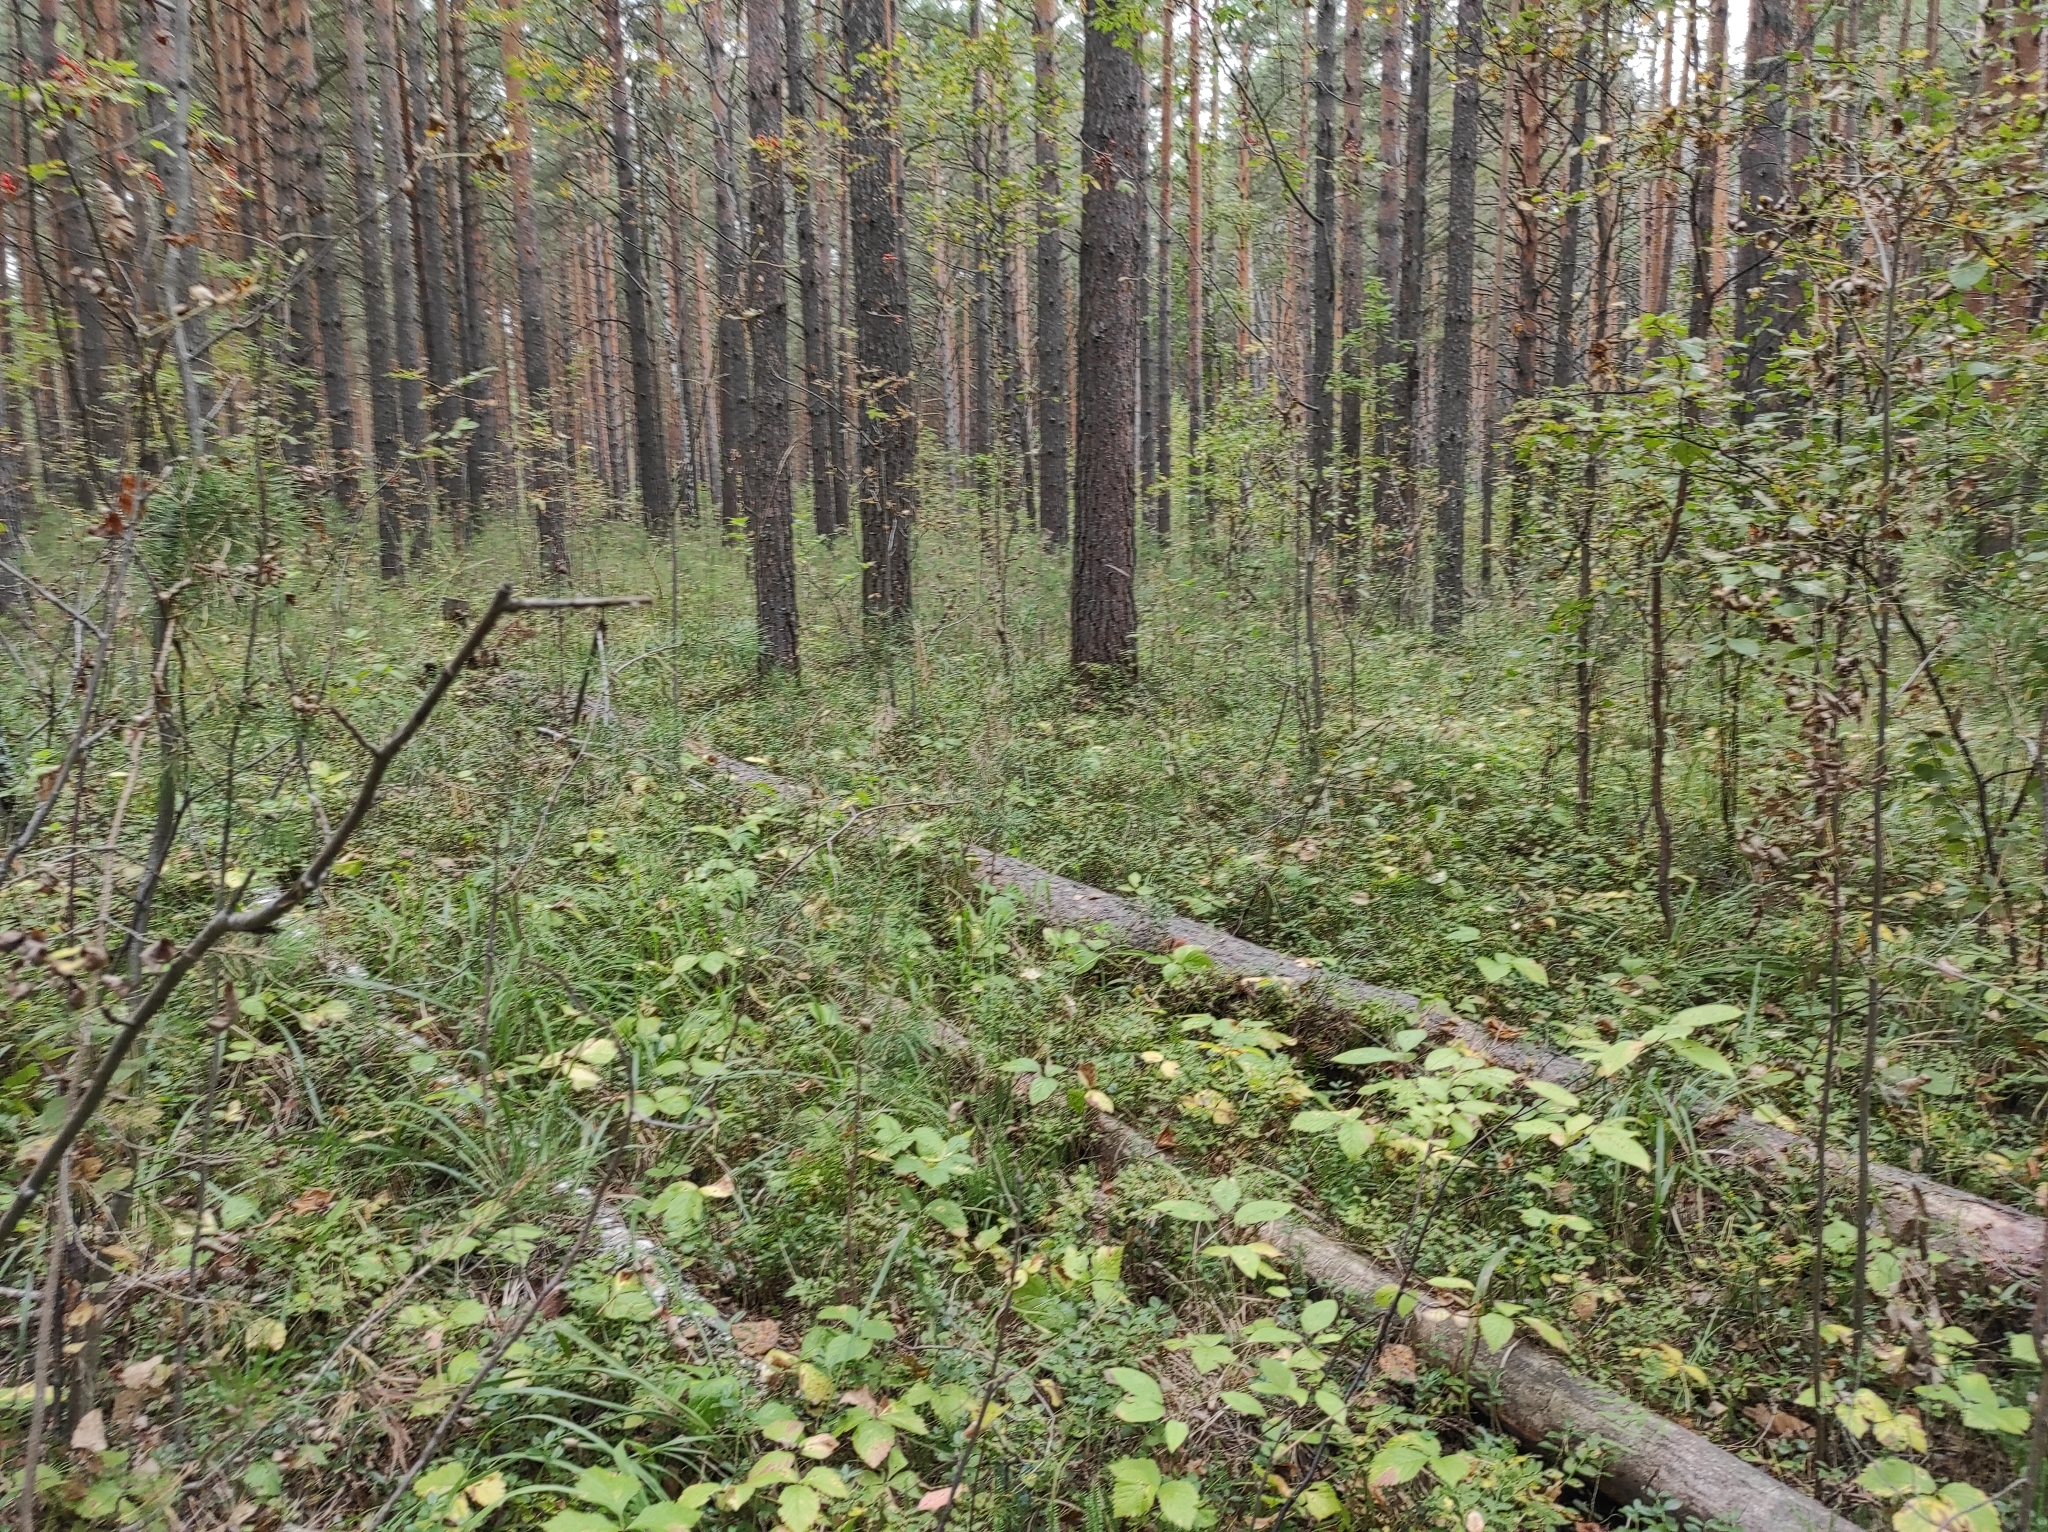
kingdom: Plantae
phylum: Tracheophyta
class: Pinopsida
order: Pinales
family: Pinaceae
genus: Pinus
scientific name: Pinus sylvestris
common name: Scots pine
